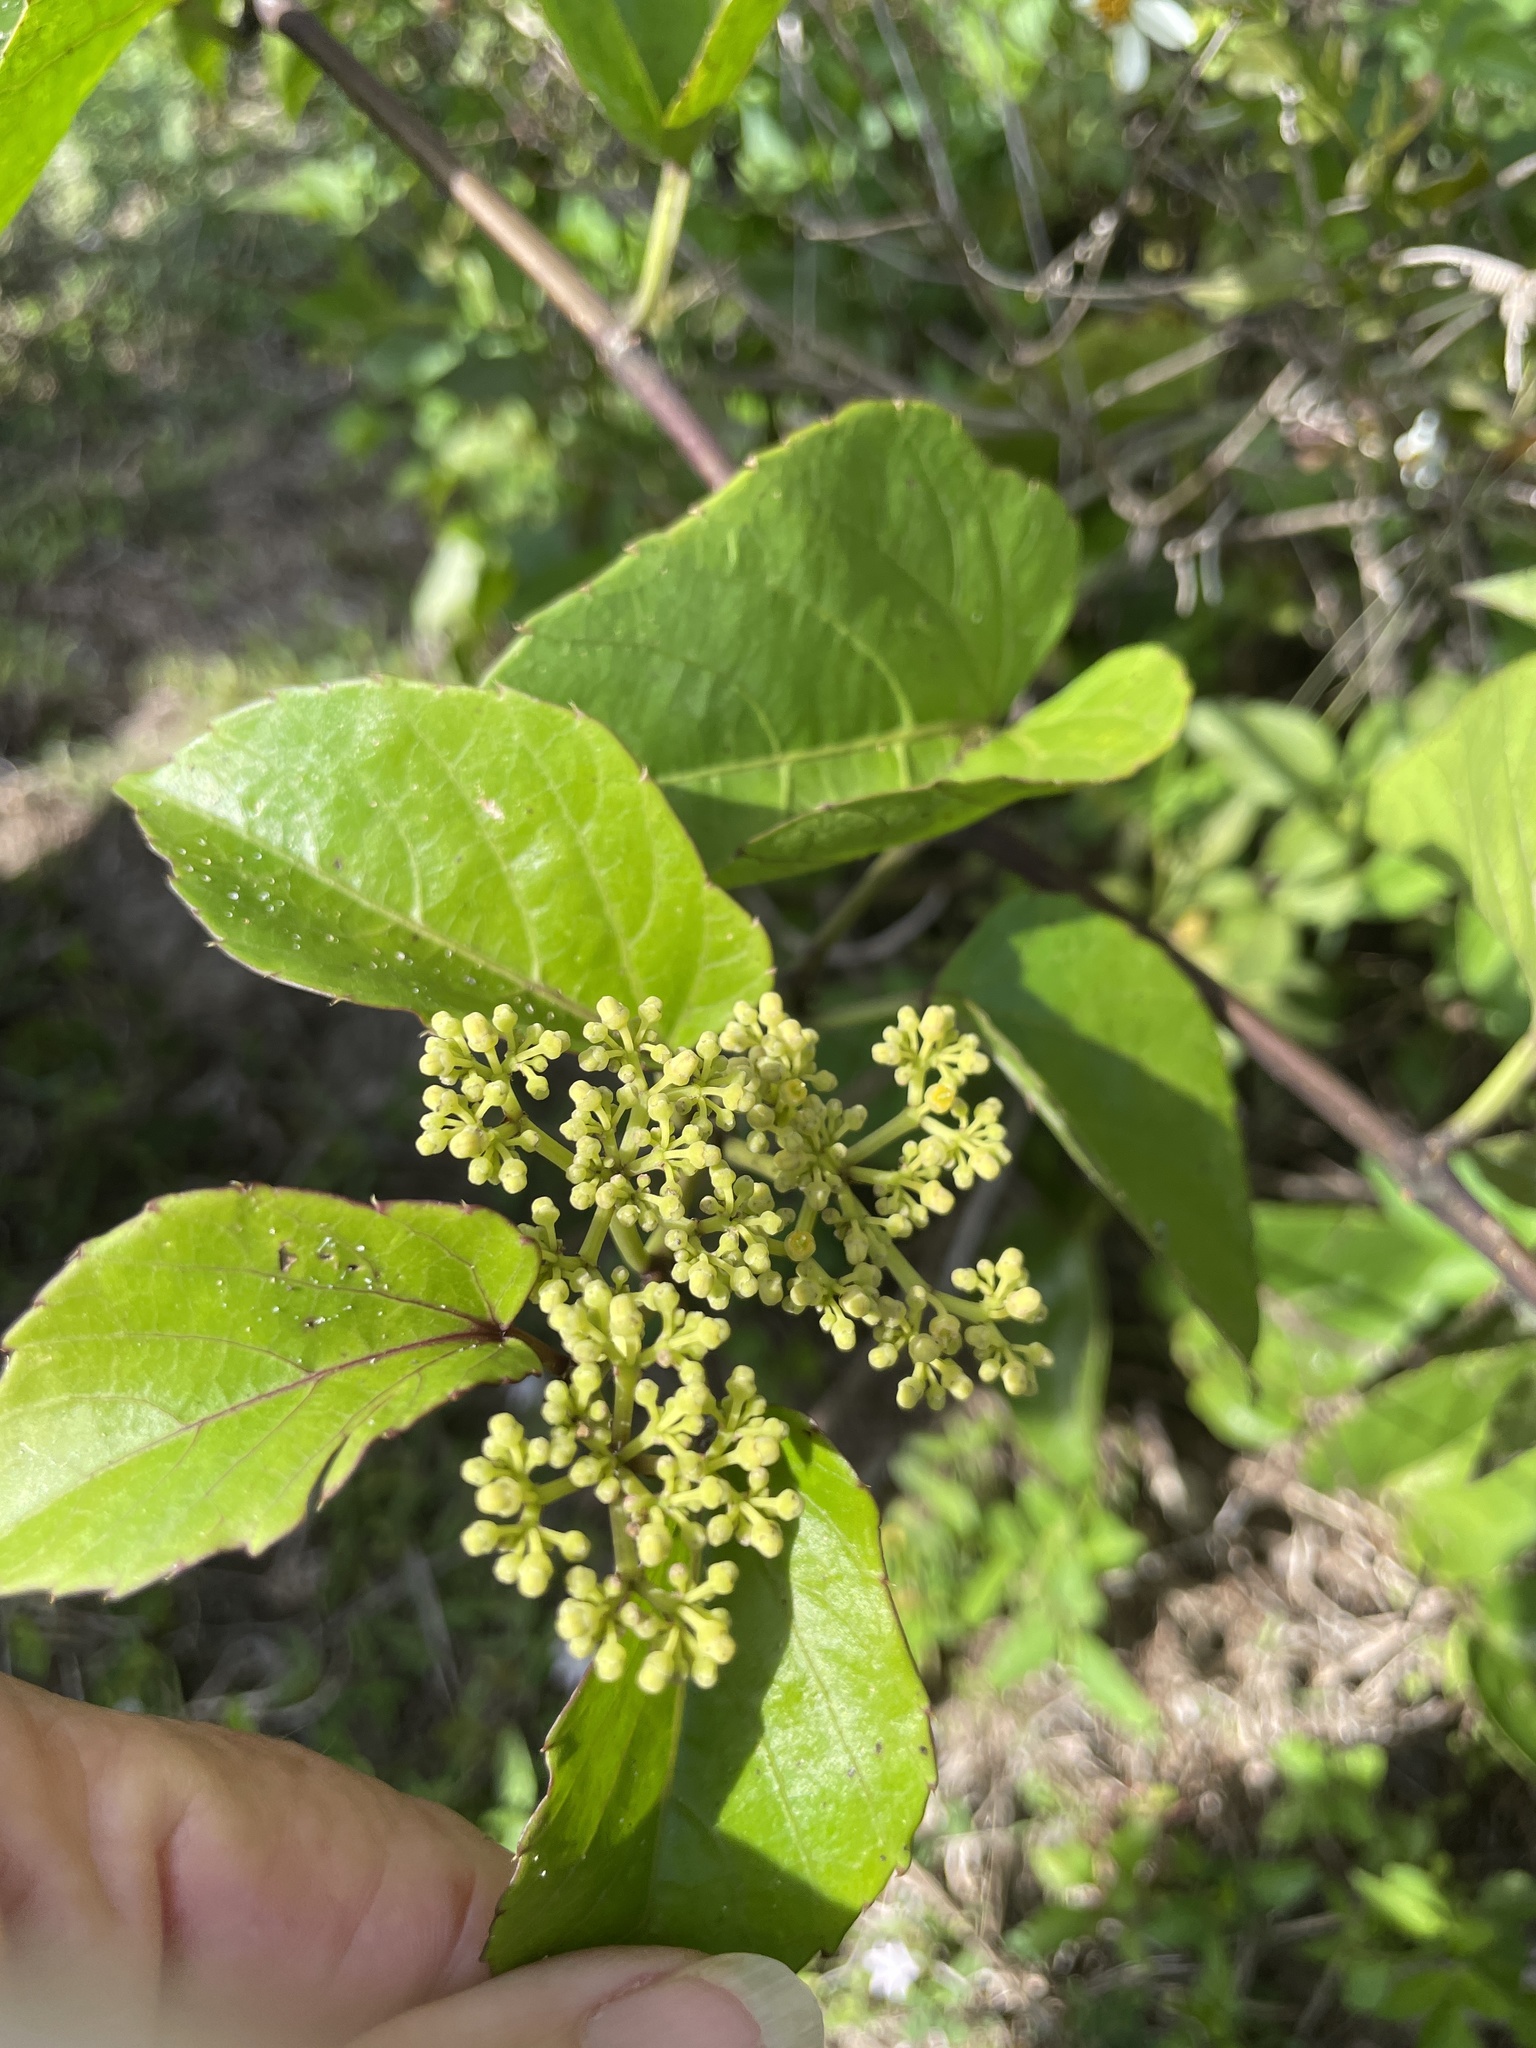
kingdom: Plantae
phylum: Tracheophyta
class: Magnoliopsida
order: Vitales
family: Vitaceae
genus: Cissus
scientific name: Cissus verticillata
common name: Princess vine
